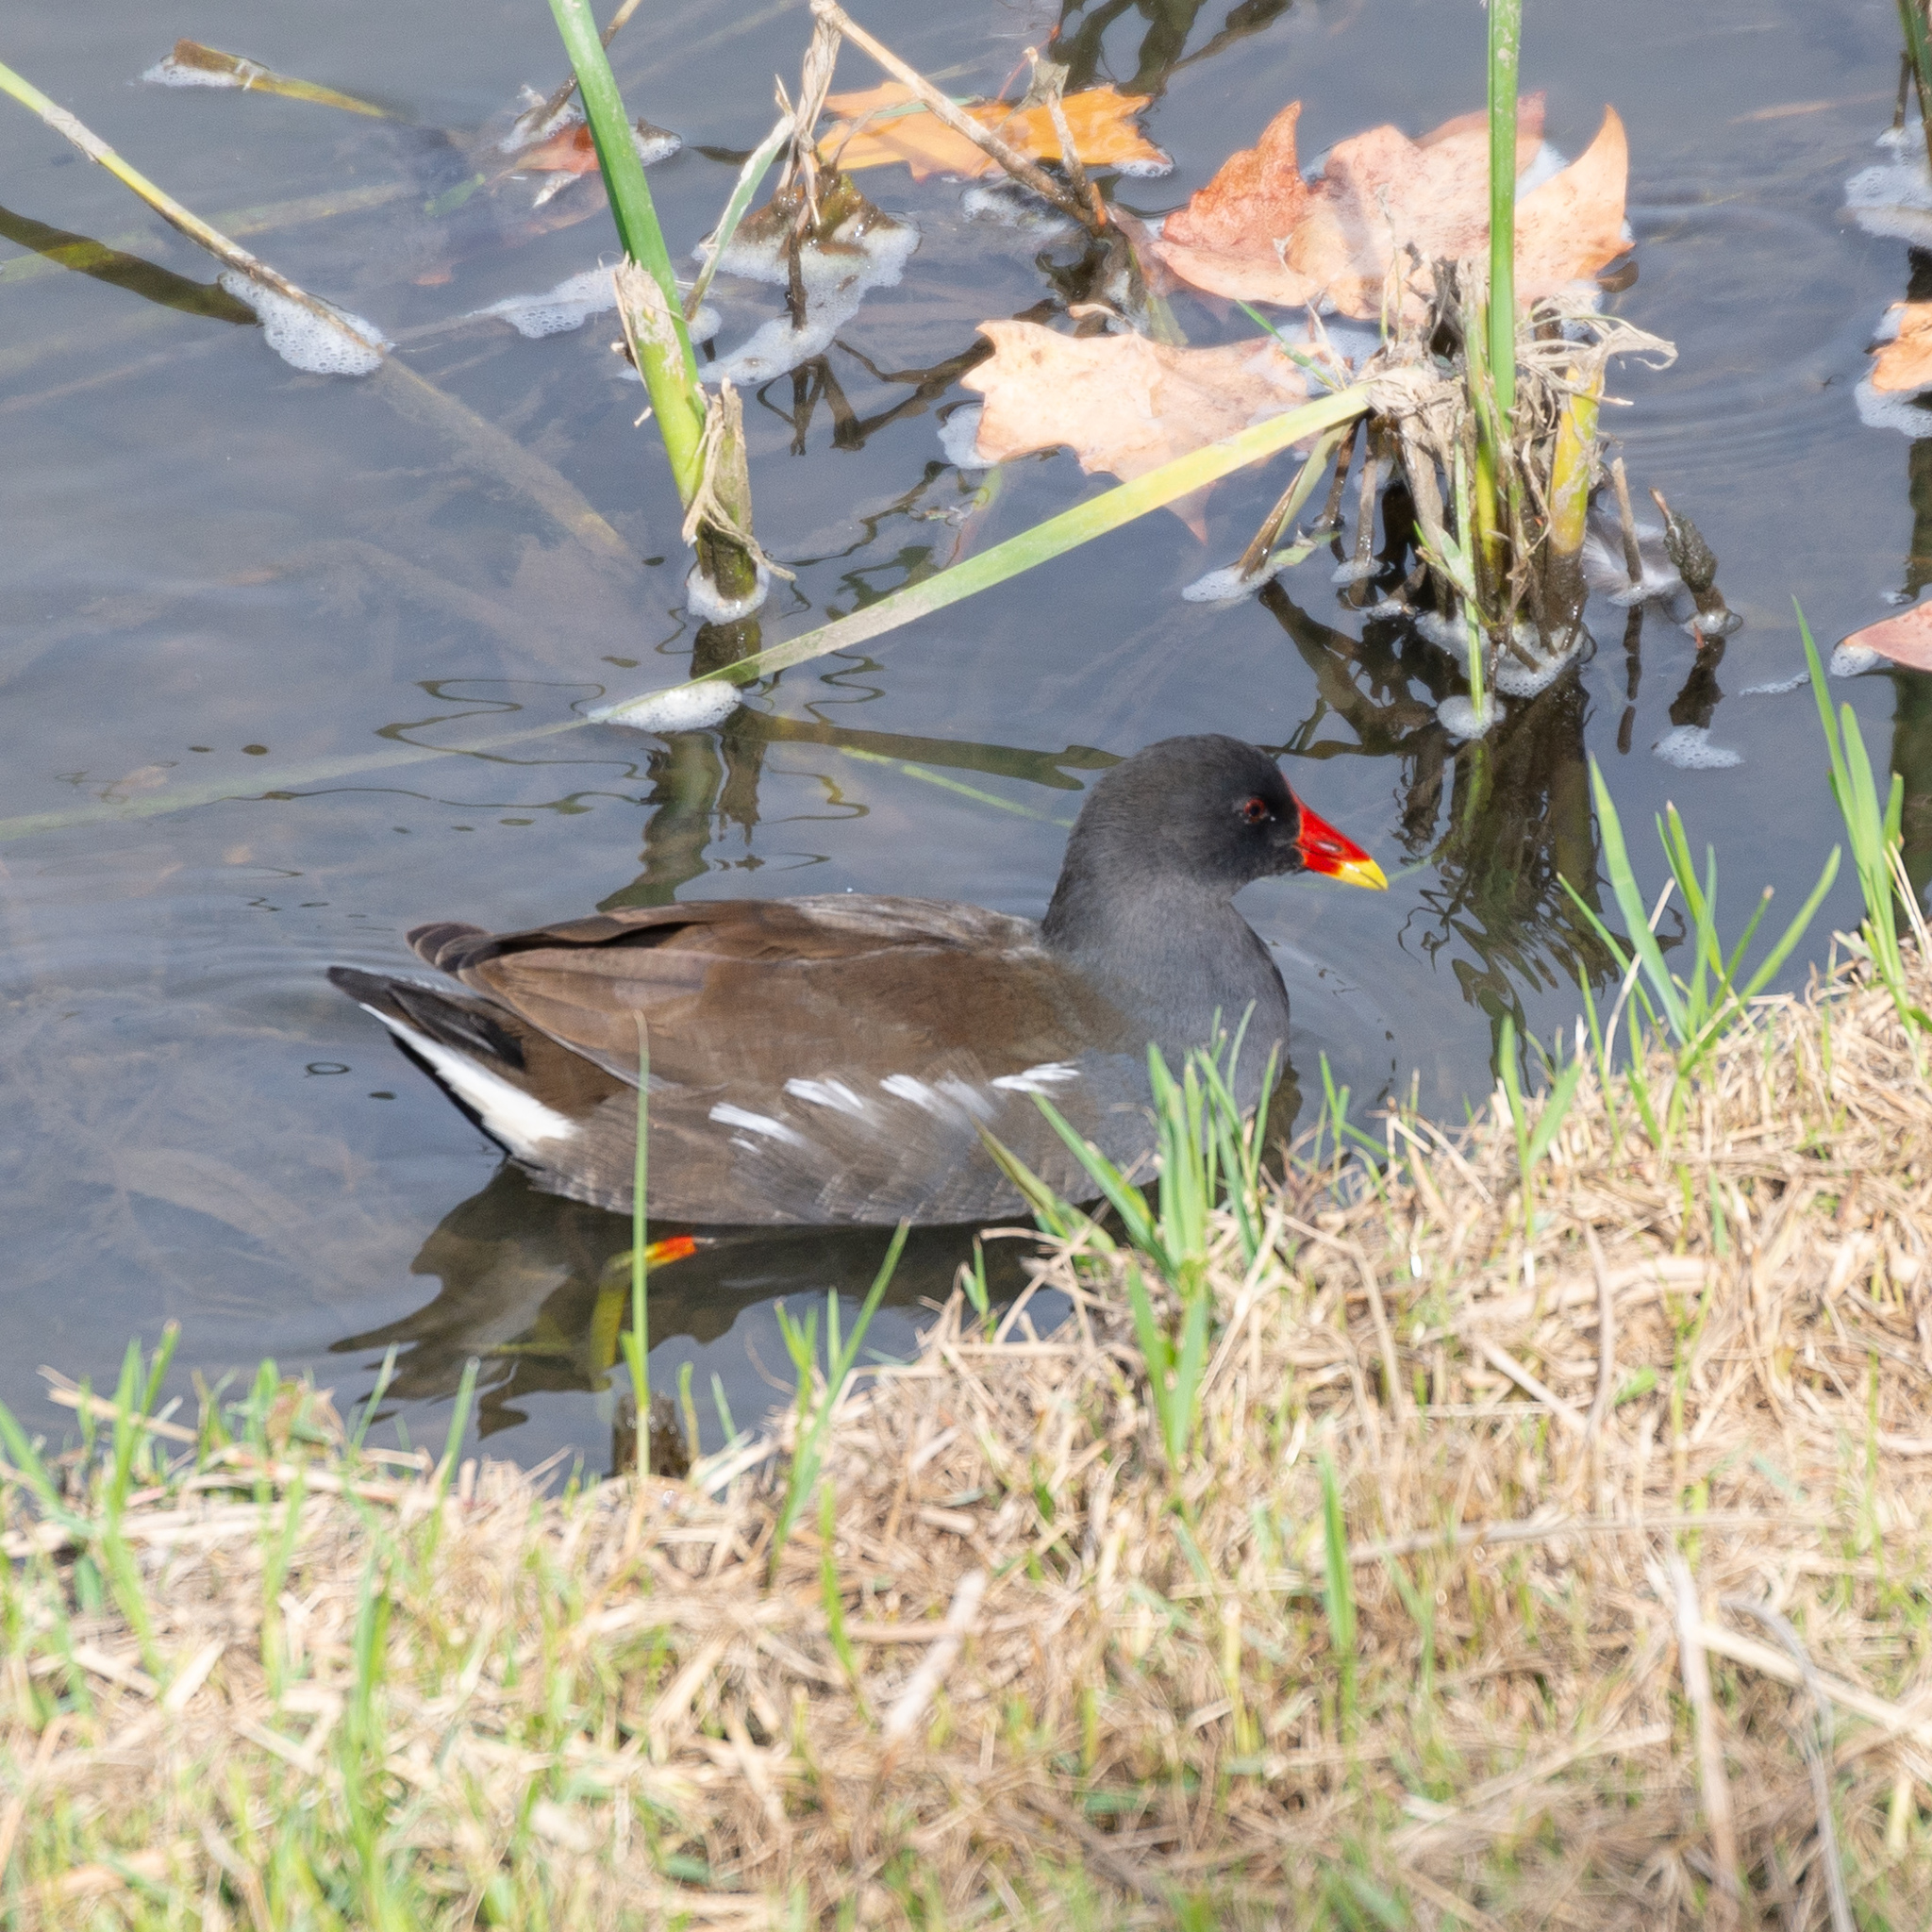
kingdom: Animalia
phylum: Chordata
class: Aves
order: Gruiformes
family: Rallidae
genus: Gallinula
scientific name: Gallinula chloropus
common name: Common moorhen
